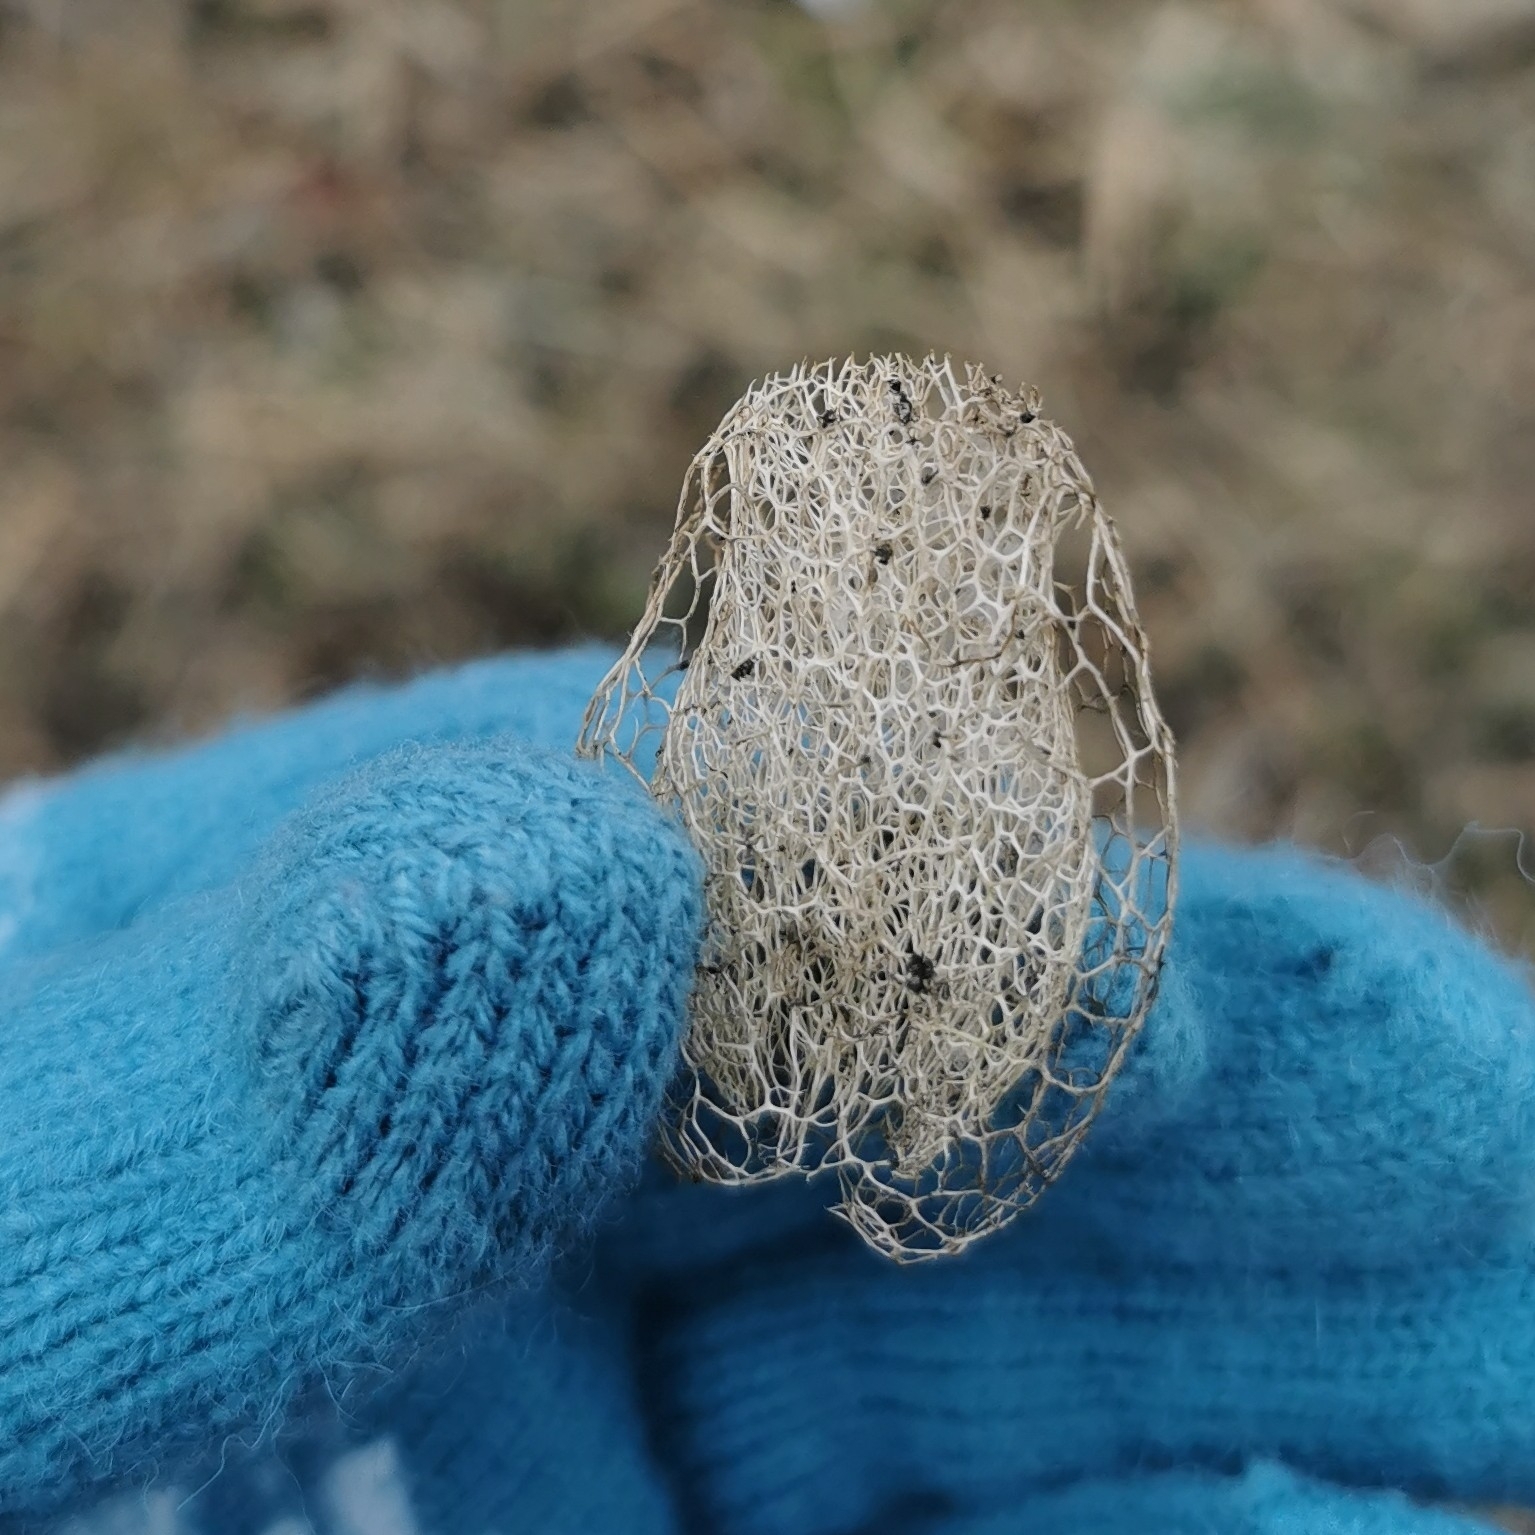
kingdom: Plantae
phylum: Tracheophyta
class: Magnoliopsida
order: Cucurbitales
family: Cucurbitaceae
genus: Echinocystis
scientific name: Echinocystis lobata
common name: Wild cucumber
